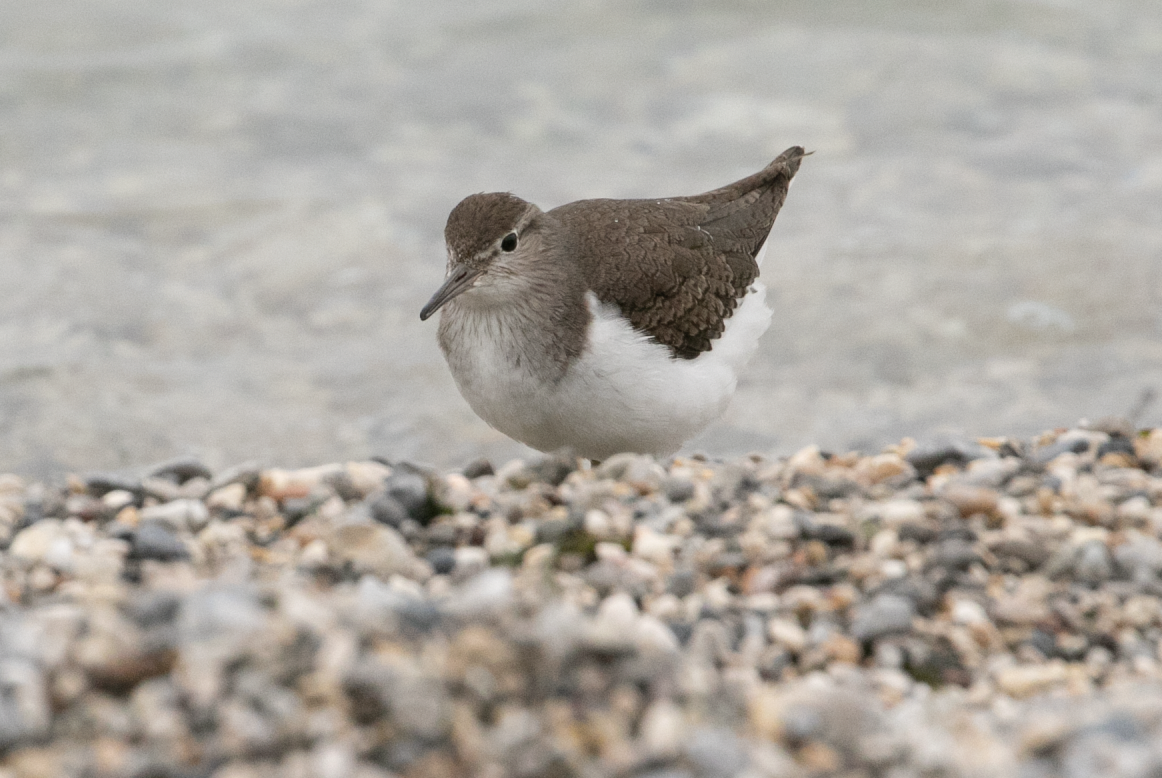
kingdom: Animalia
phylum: Chordata
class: Aves
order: Charadriiformes
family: Scolopacidae
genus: Actitis
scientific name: Actitis hypoleucos
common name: Common sandpiper
